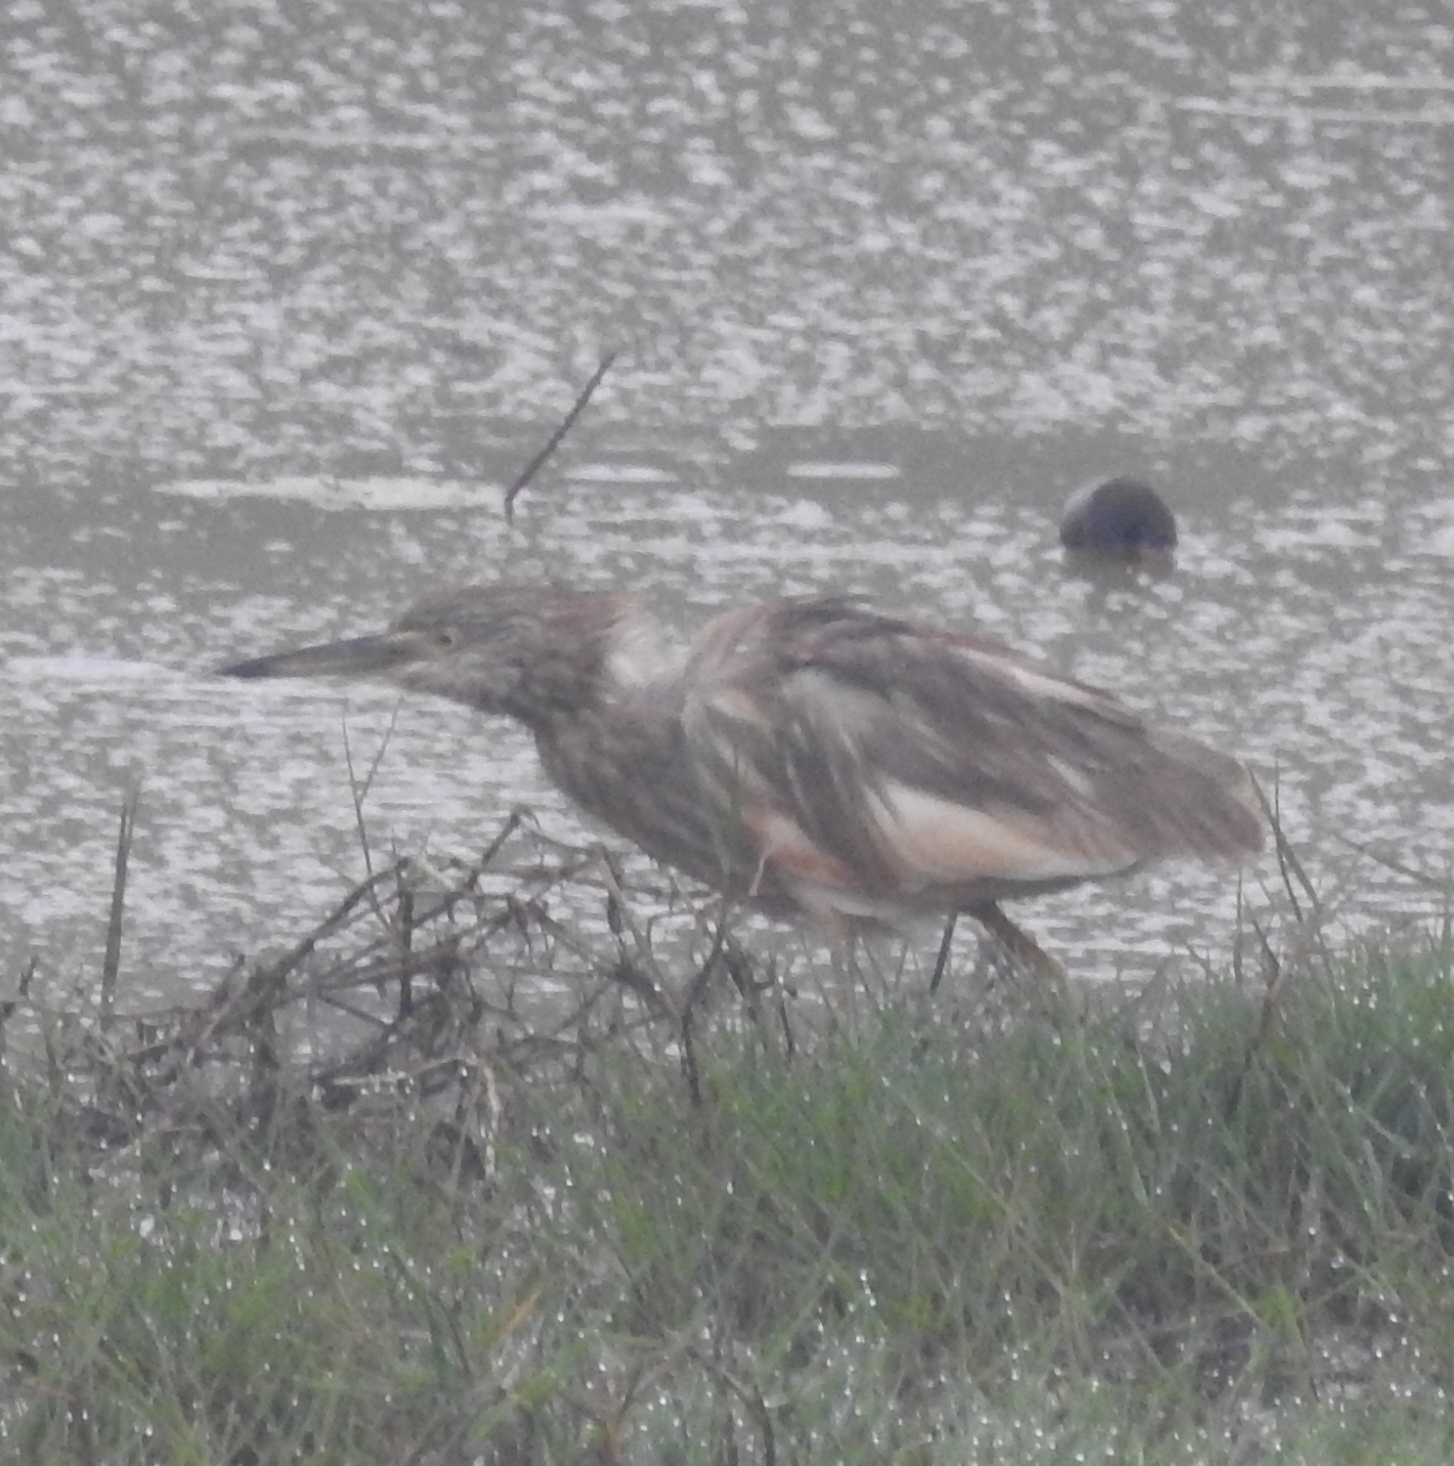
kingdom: Animalia
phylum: Chordata
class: Aves
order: Pelecaniformes
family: Ardeidae
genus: Ardeola
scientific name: Ardeola grayii
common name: Indian pond heron
